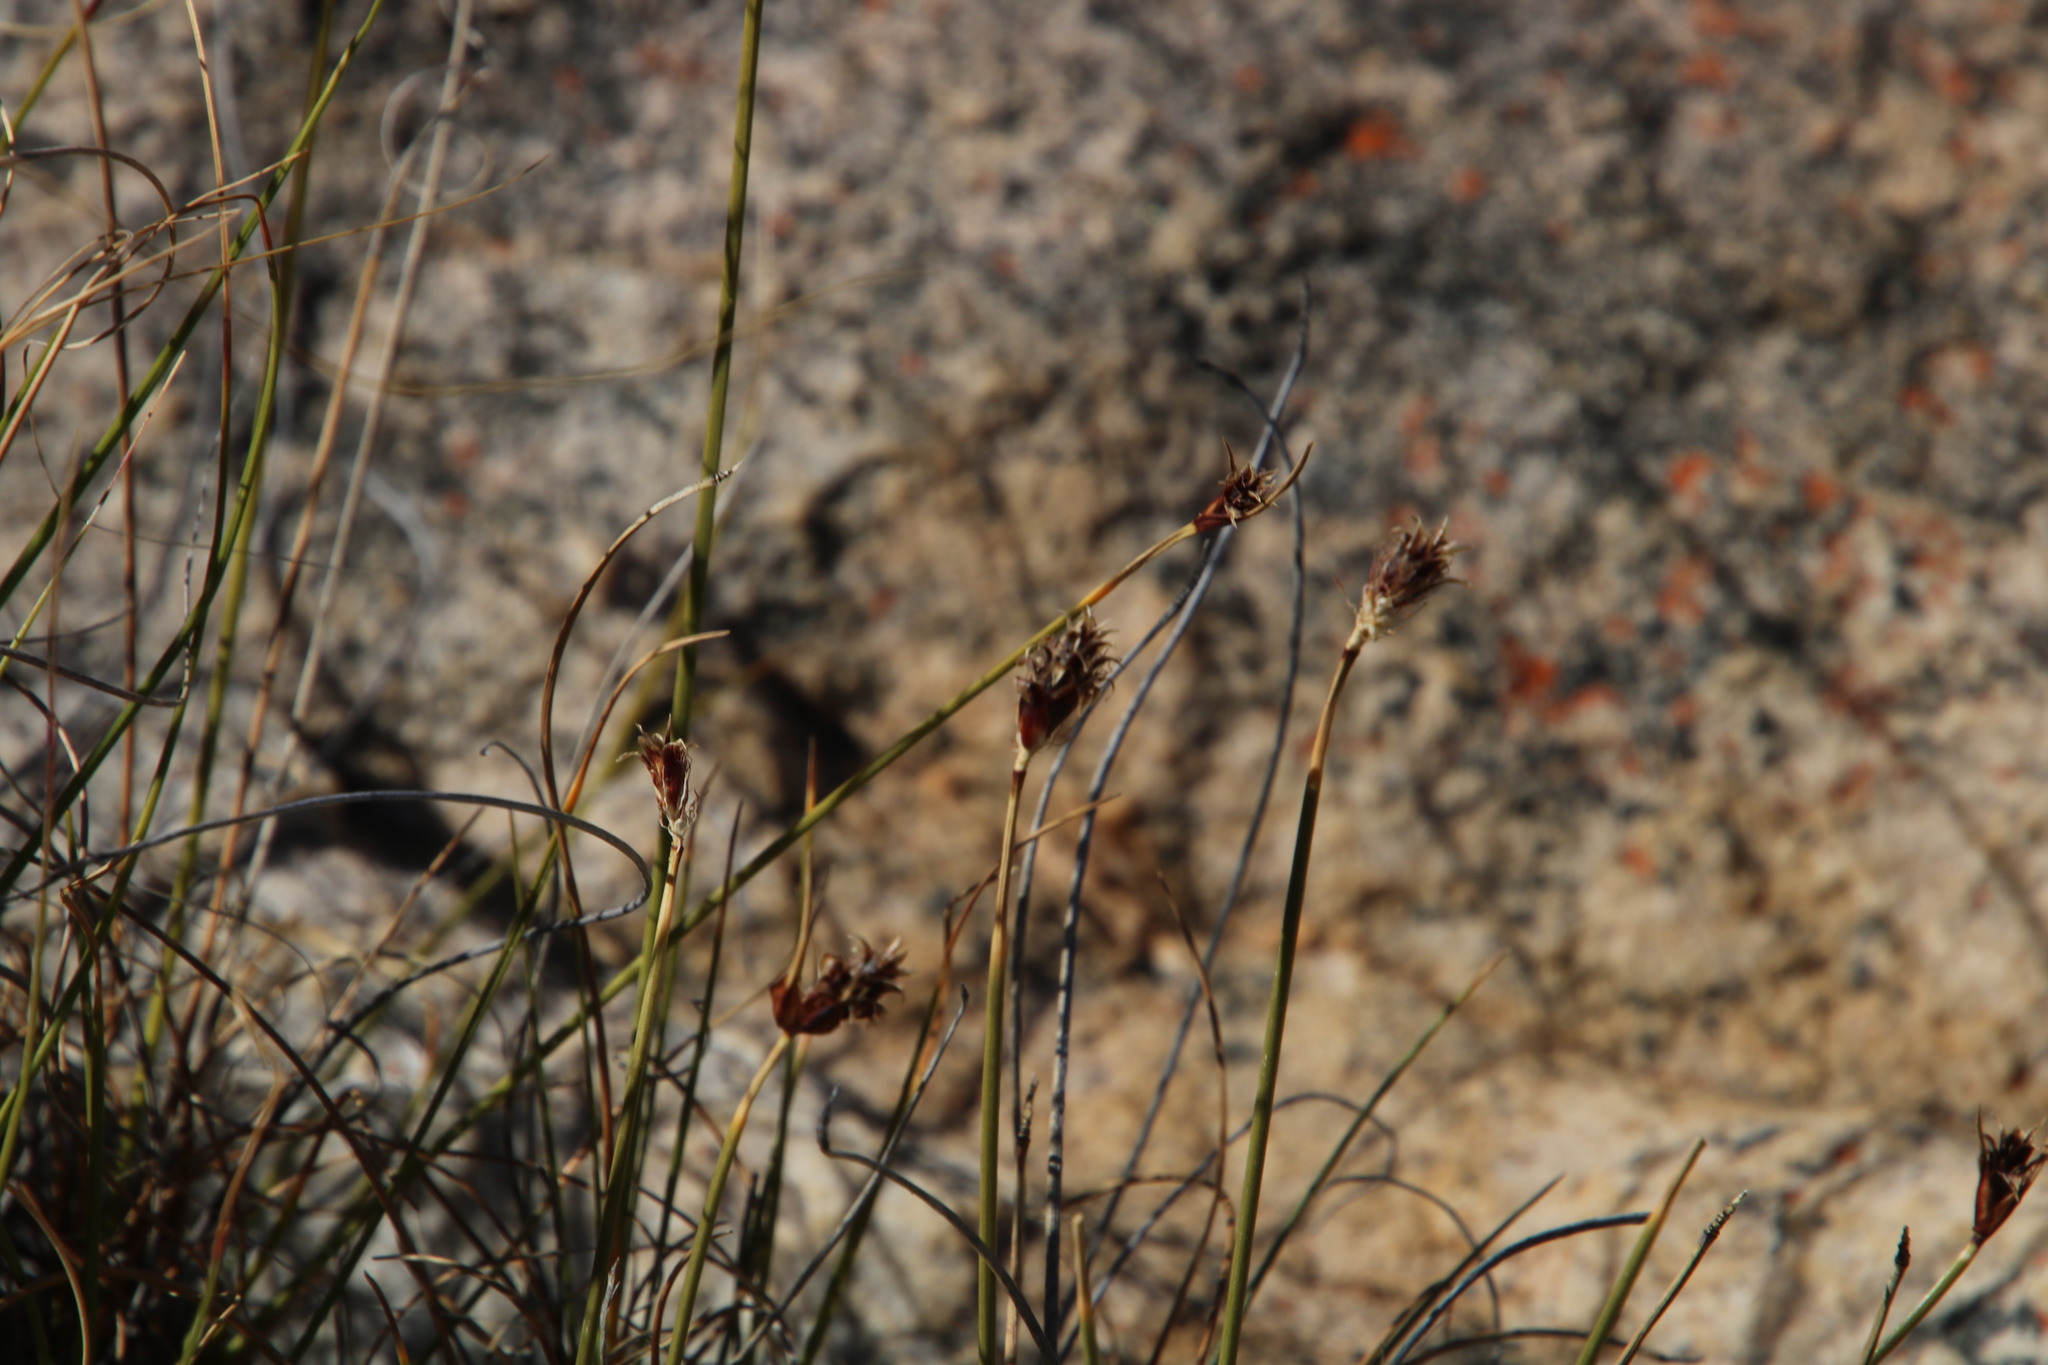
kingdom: Plantae
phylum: Tracheophyta
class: Liliopsida
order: Poales
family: Cyperaceae
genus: Ficinia
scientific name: Ficinia nigrescens
